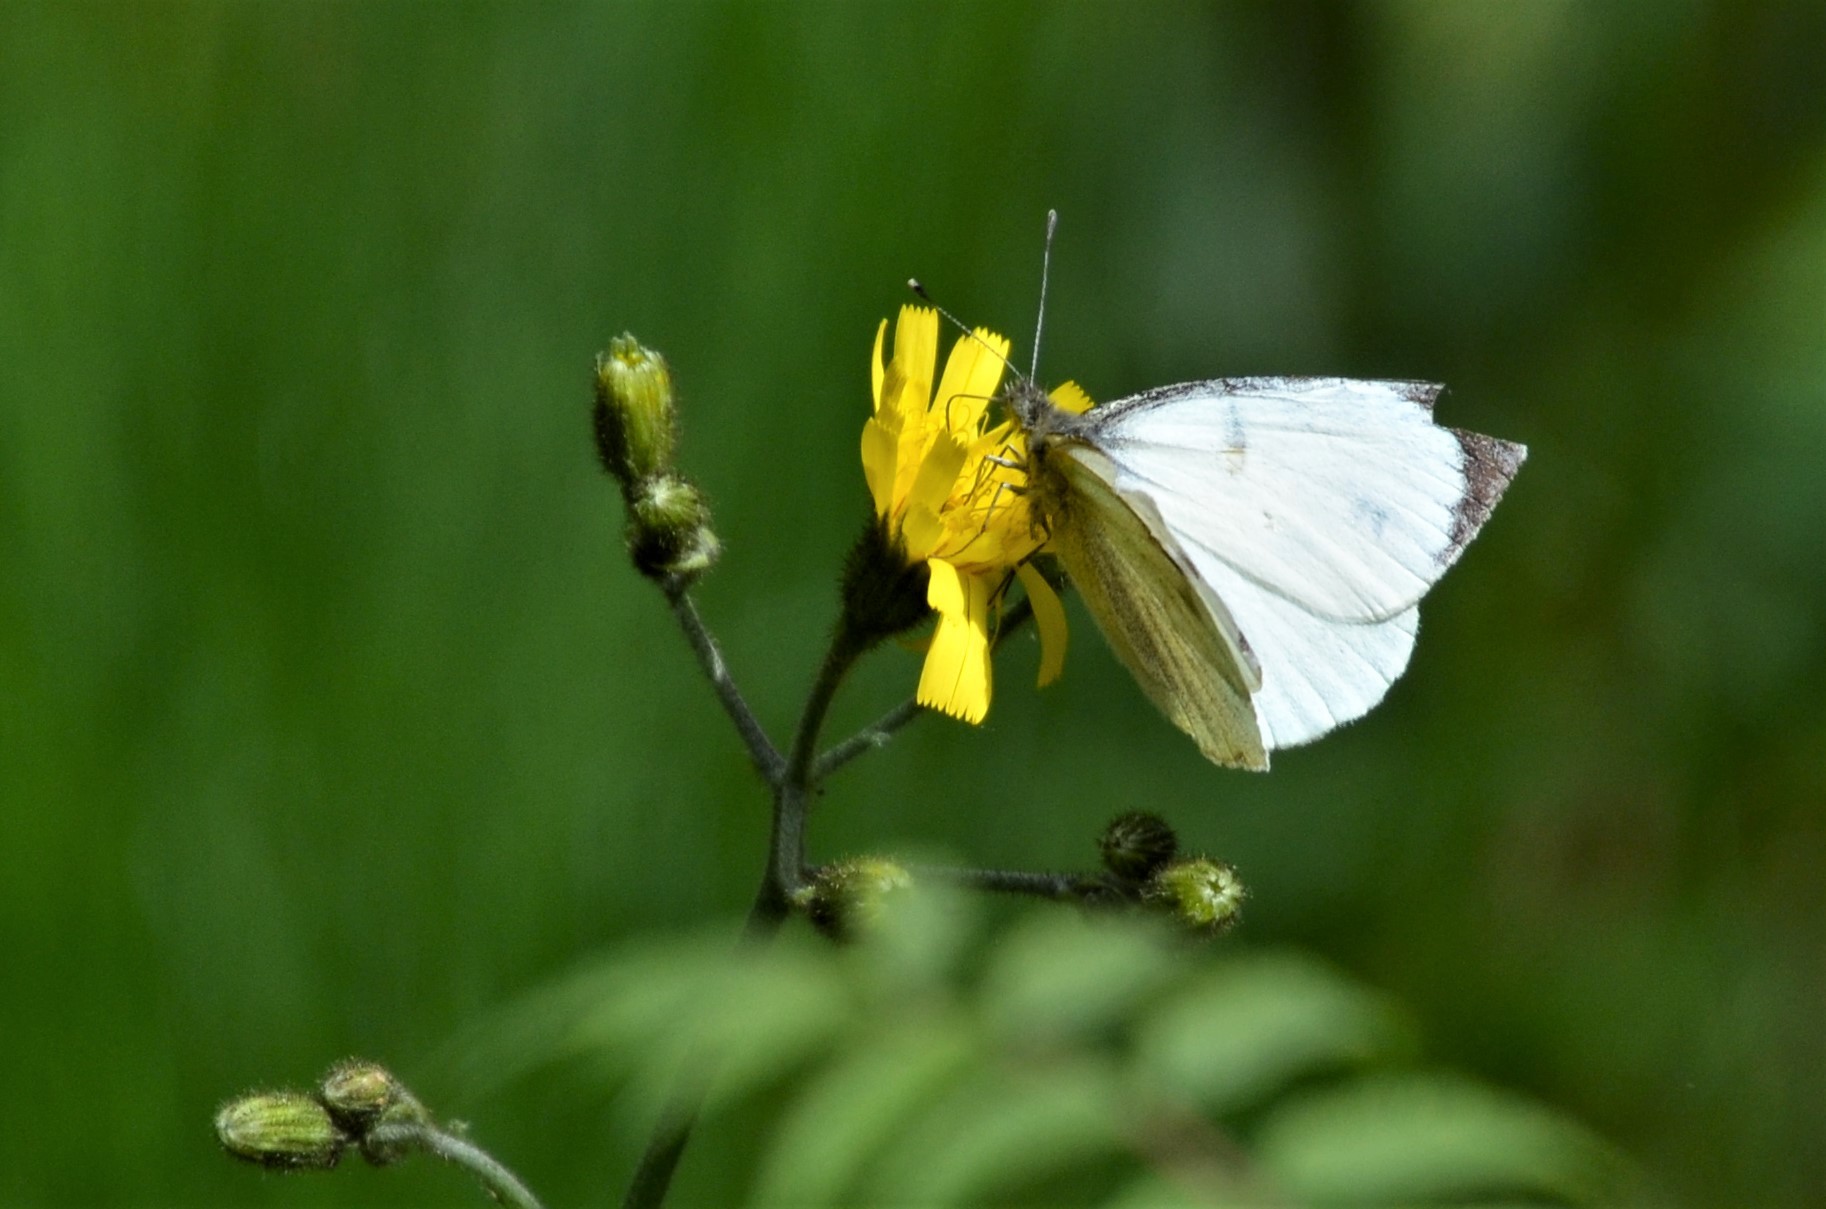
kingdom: Animalia
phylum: Arthropoda
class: Insecta
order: Lepidoptera
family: Pieridae
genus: Pieris
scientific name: Pieris brassicae
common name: Large white
